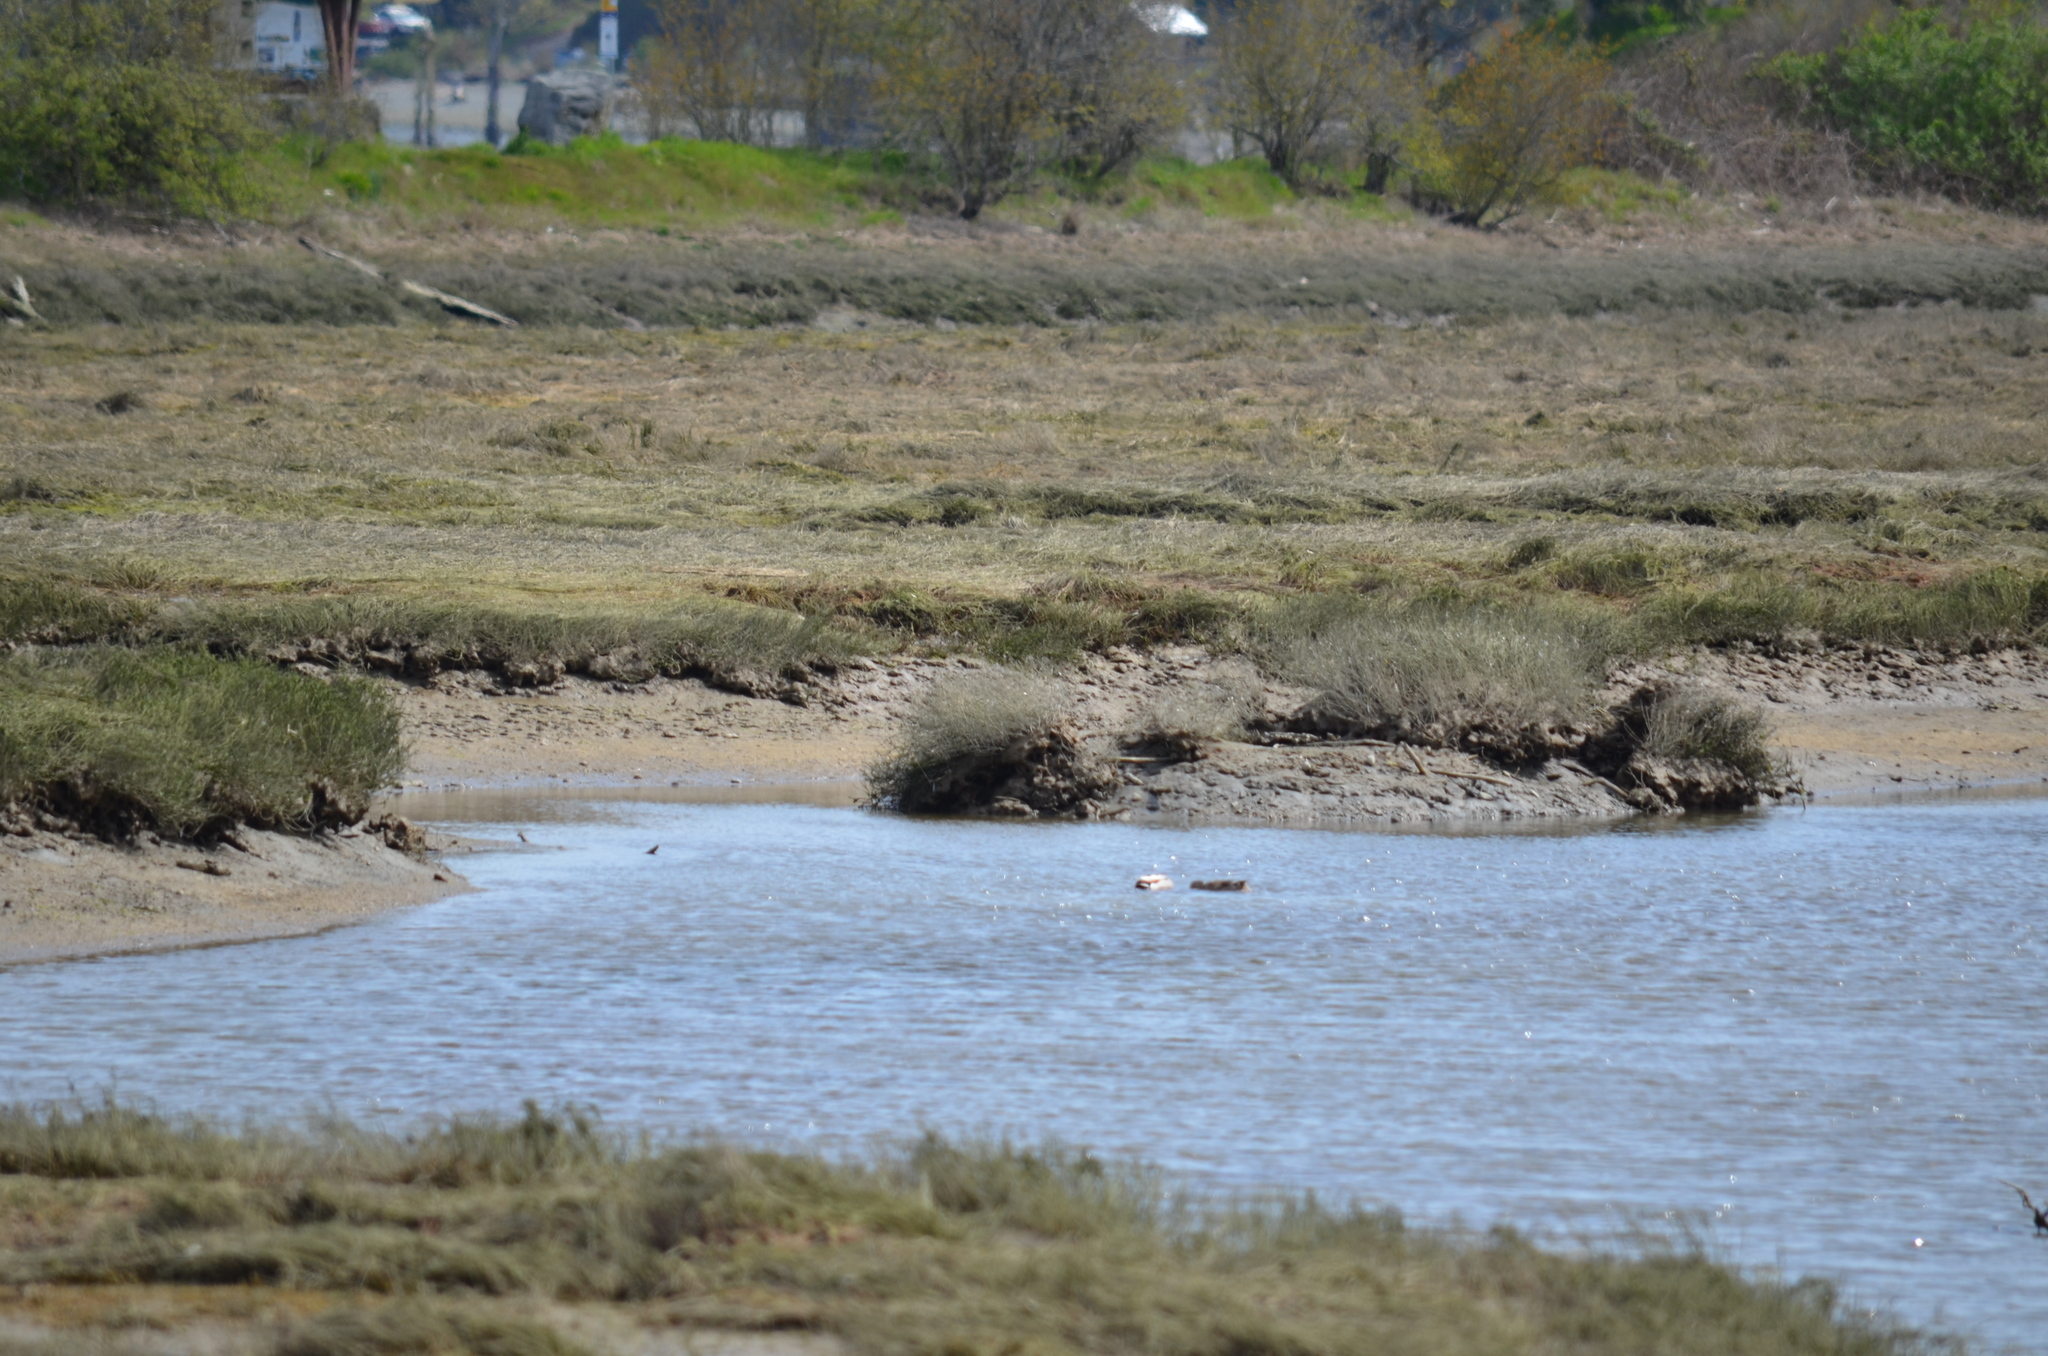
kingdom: Animalia
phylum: Chordata
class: Aves
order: Anseriformes
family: Anatidae
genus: Anas
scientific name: Anas platyrhynchos
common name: Mallard
